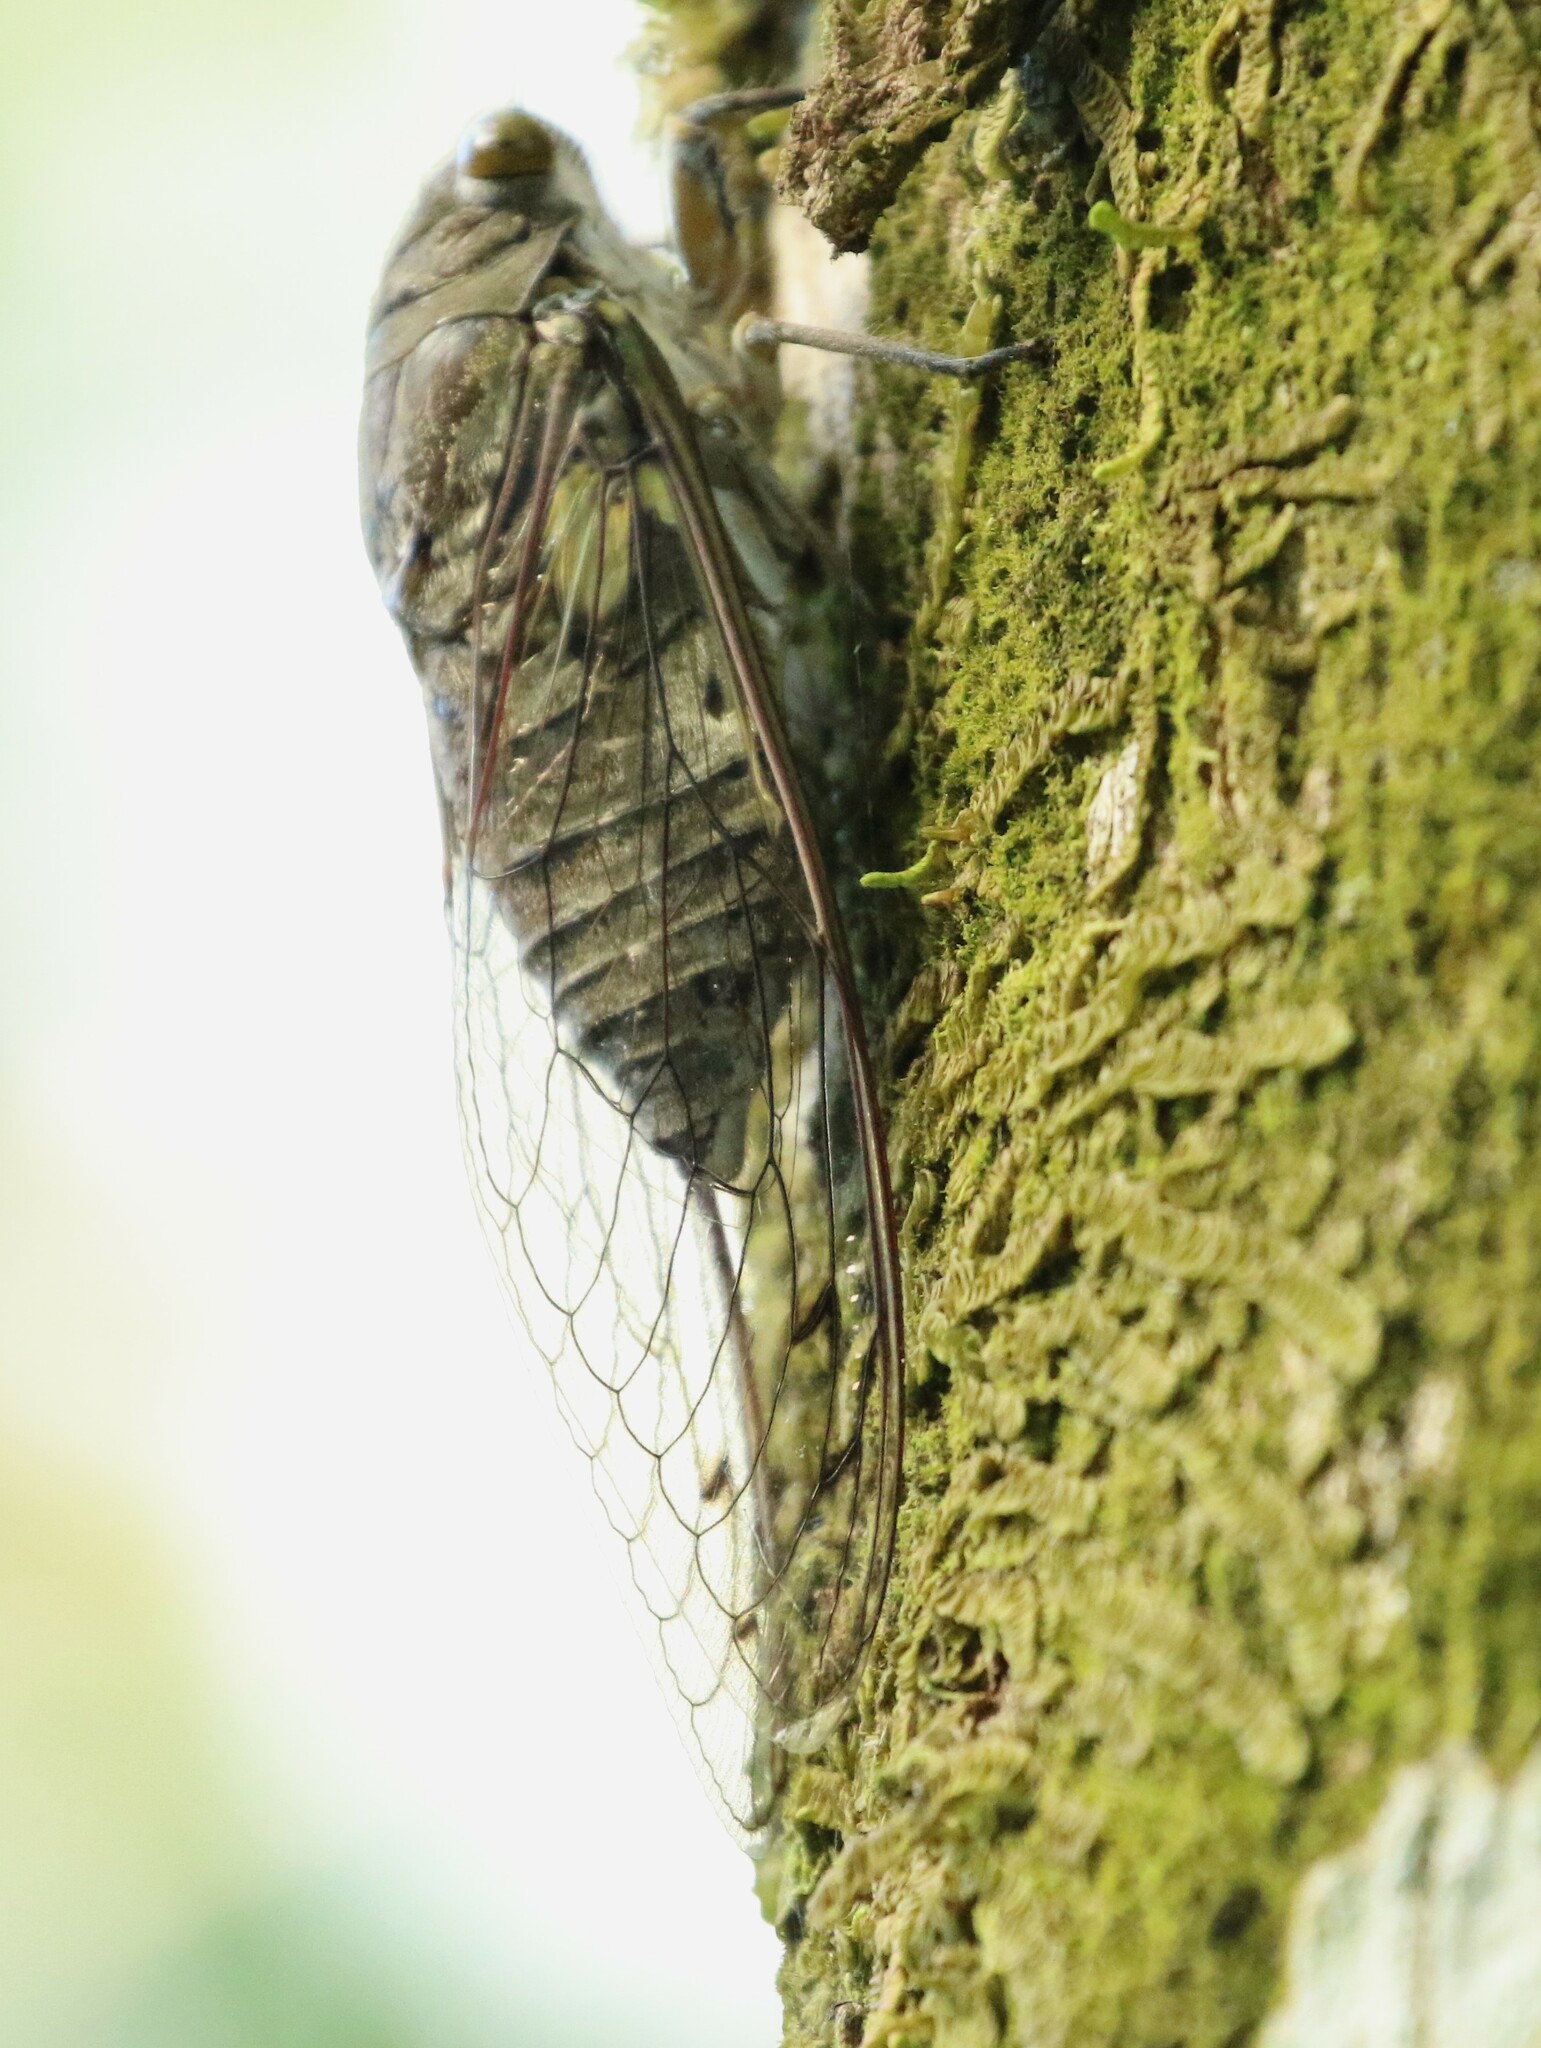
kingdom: Animalia
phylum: Arthropoda
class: Insecta
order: Hemiptera
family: Cicadidae
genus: Quesada
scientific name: Quesada gigas
